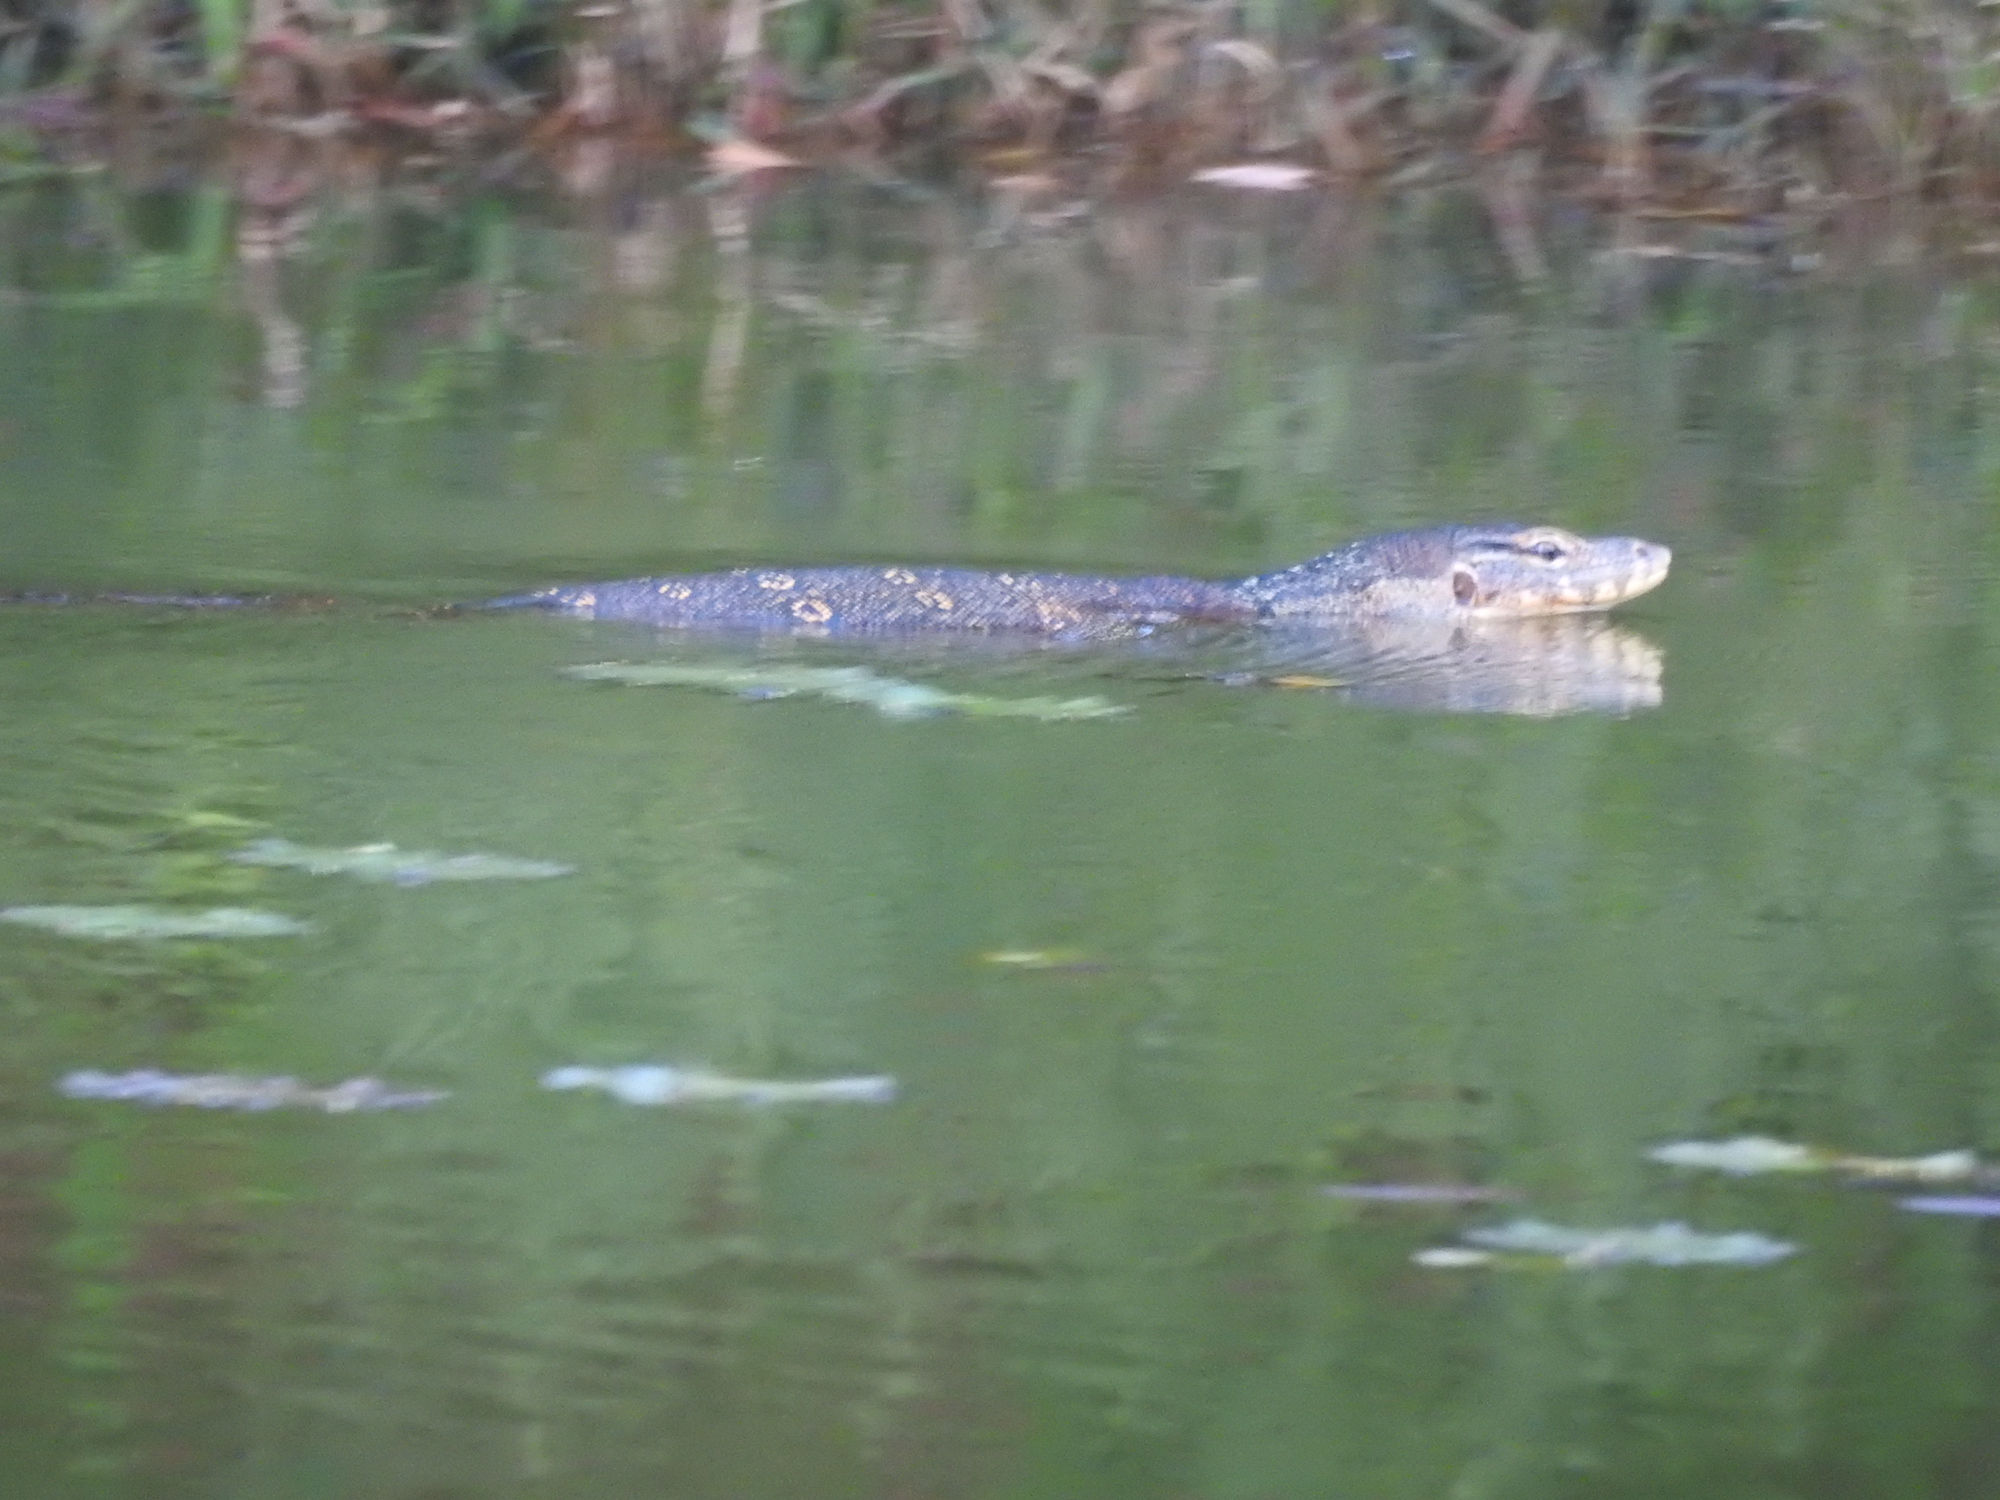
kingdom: Animalia
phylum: Chordata
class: Squamata
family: Varanidae
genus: Varanus
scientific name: Varanus salvator
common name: Common water monitor
